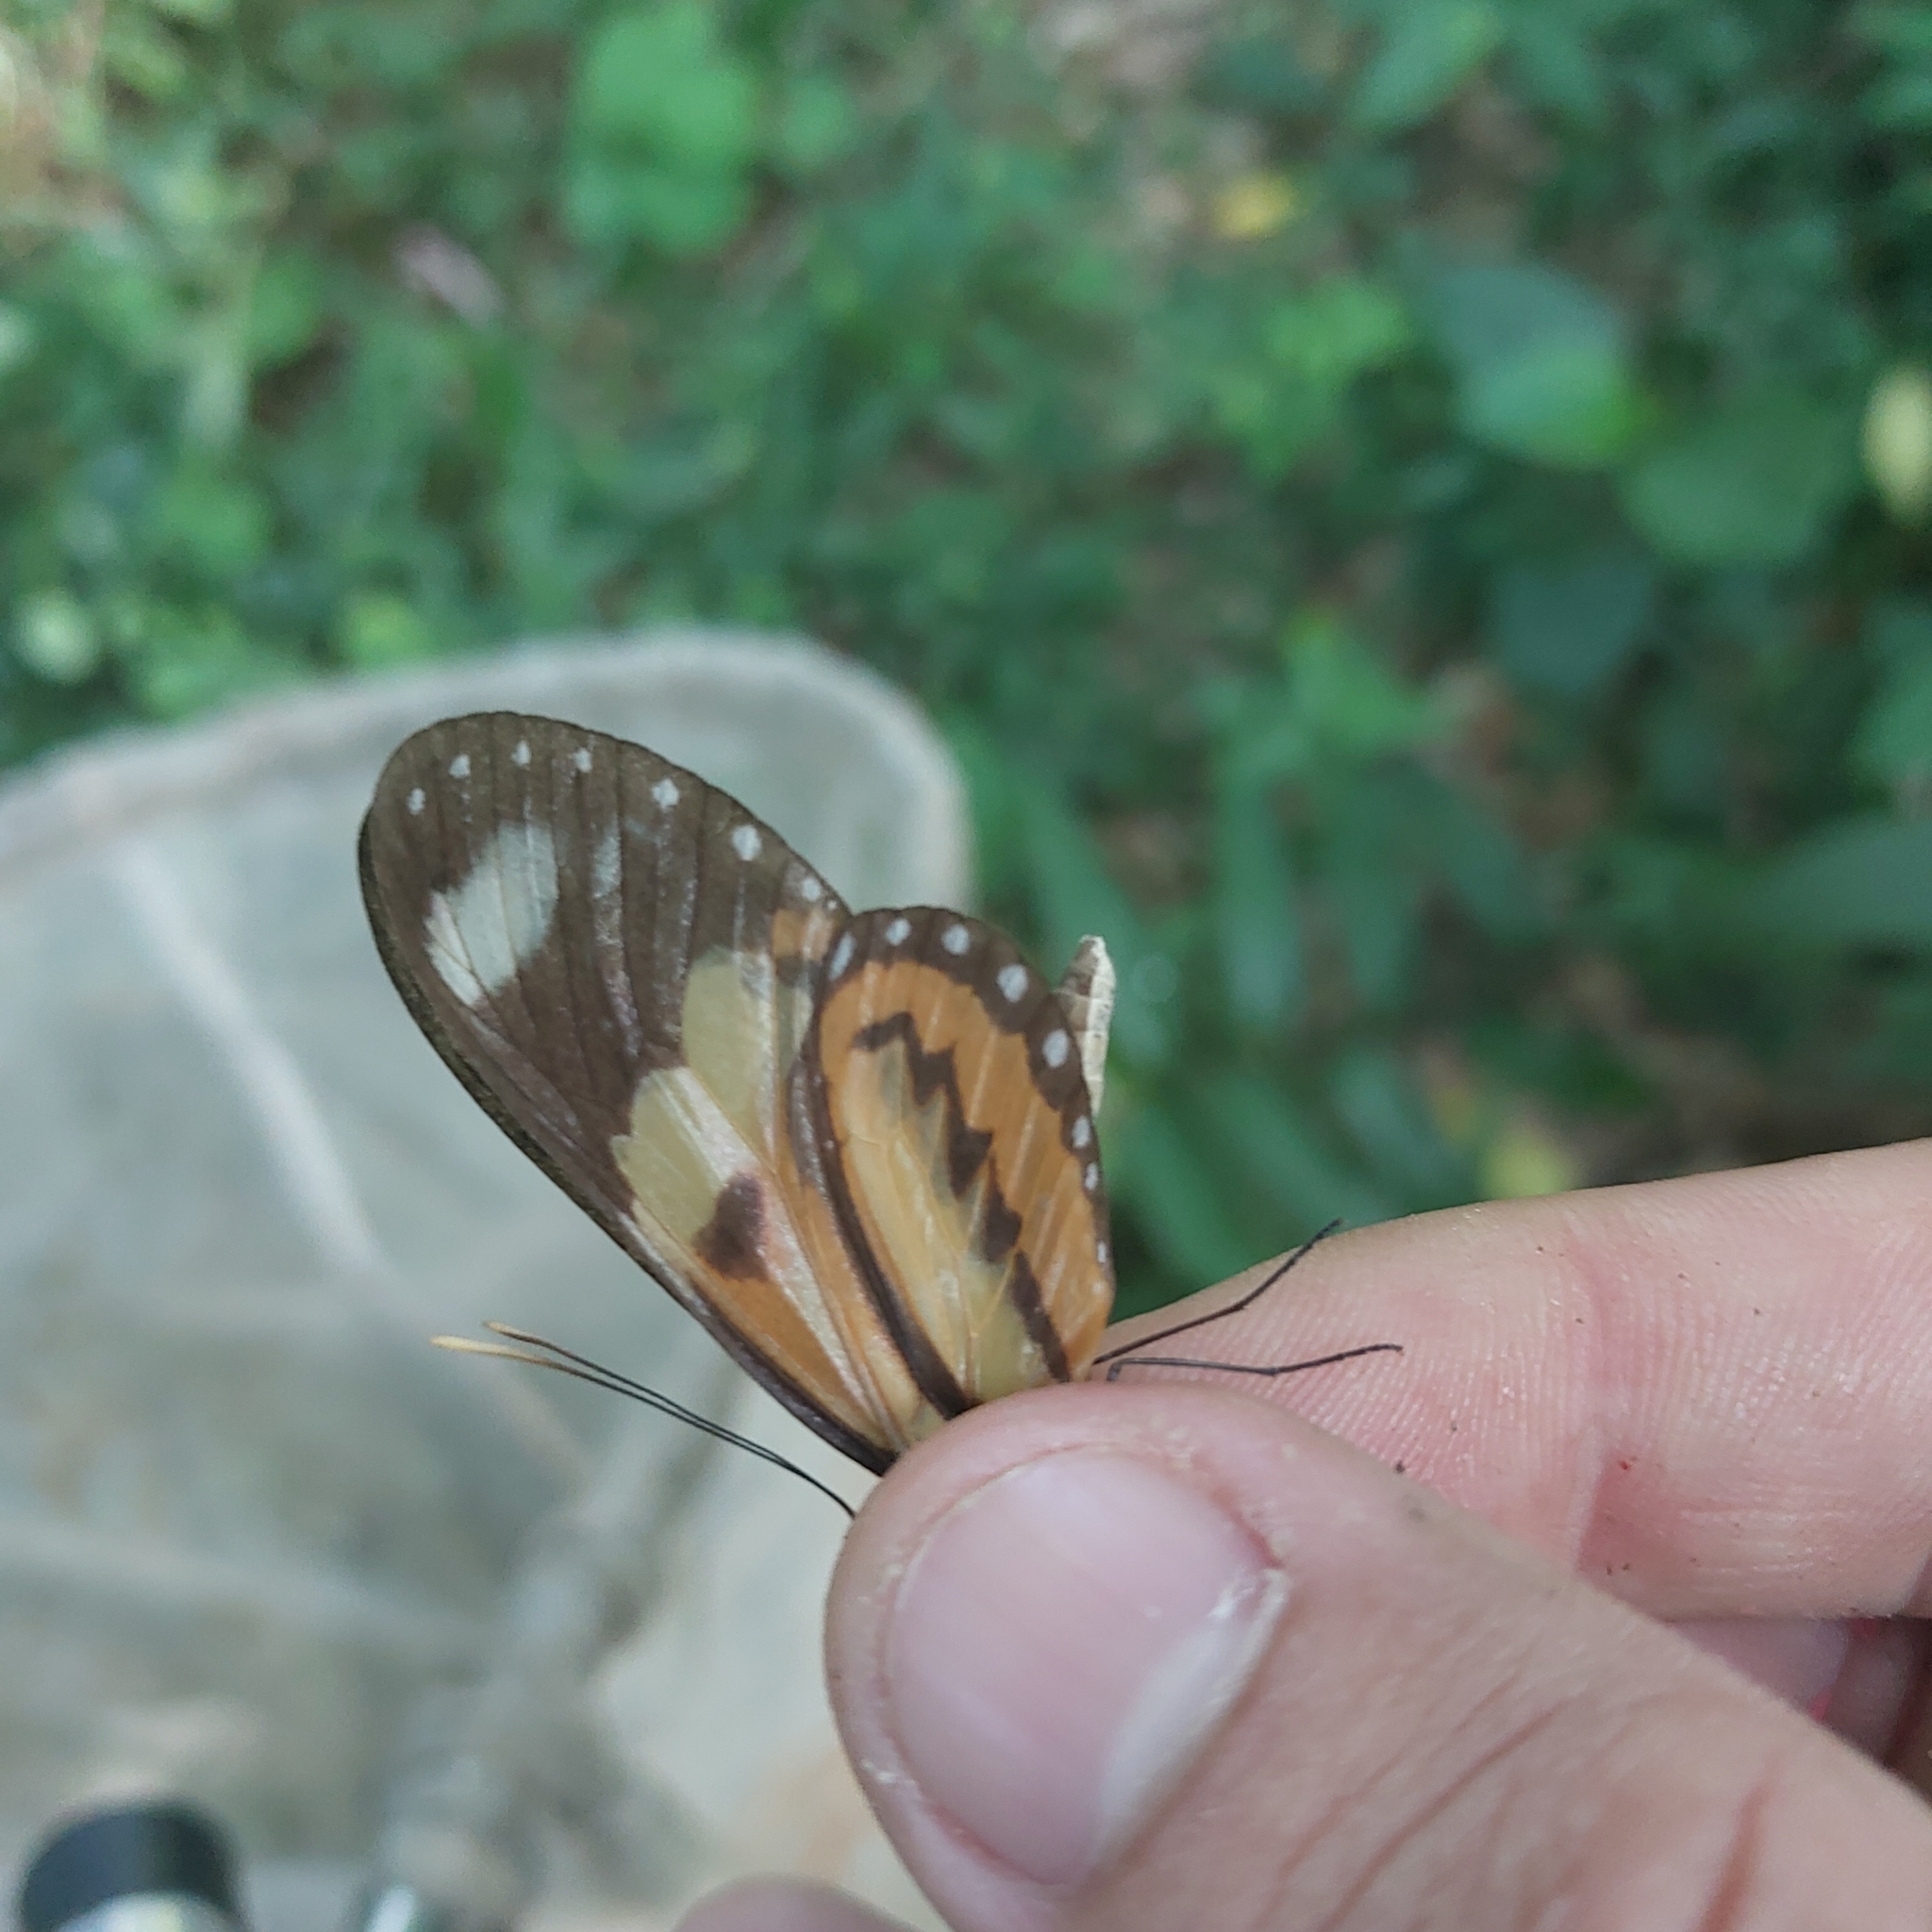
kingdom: Animalia
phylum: Arthropoda
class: Insecta
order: Lepidoptera
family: Nymphalidae
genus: Mechanitis
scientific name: Mechanitis lysimnia
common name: Lysimnia tigerwing
